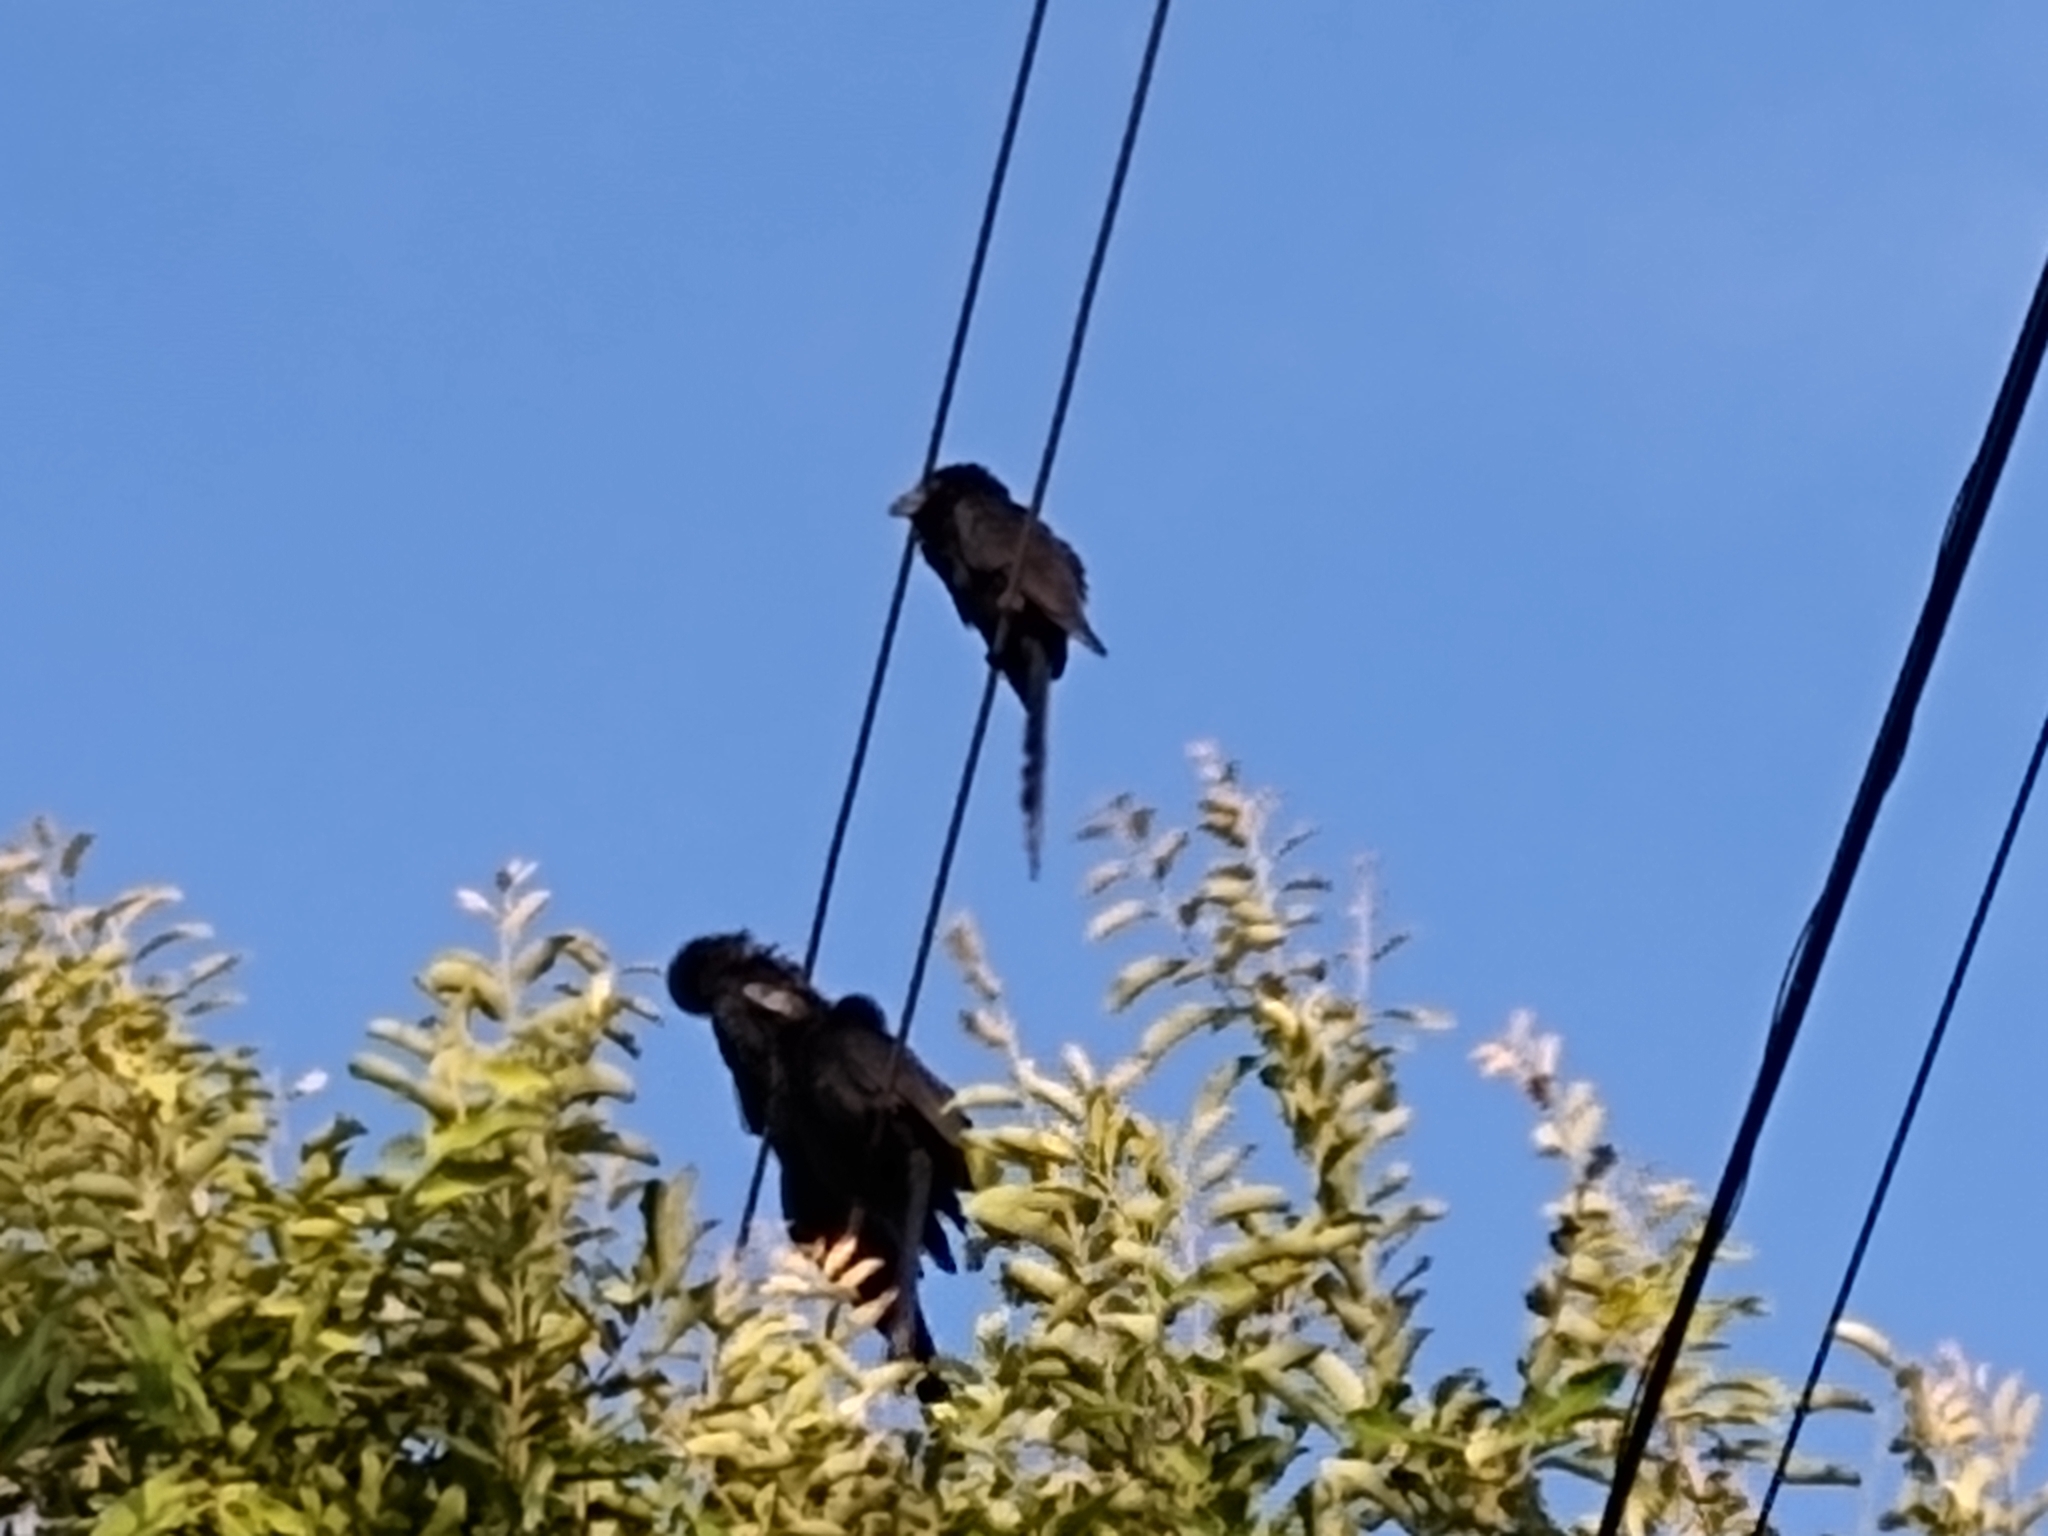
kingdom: Animalia
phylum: Chordata
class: Aves
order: Cuculiformes
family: Cuculidae
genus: Crotophaga
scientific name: Crotophaga ani
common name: Smooth-billed ani
